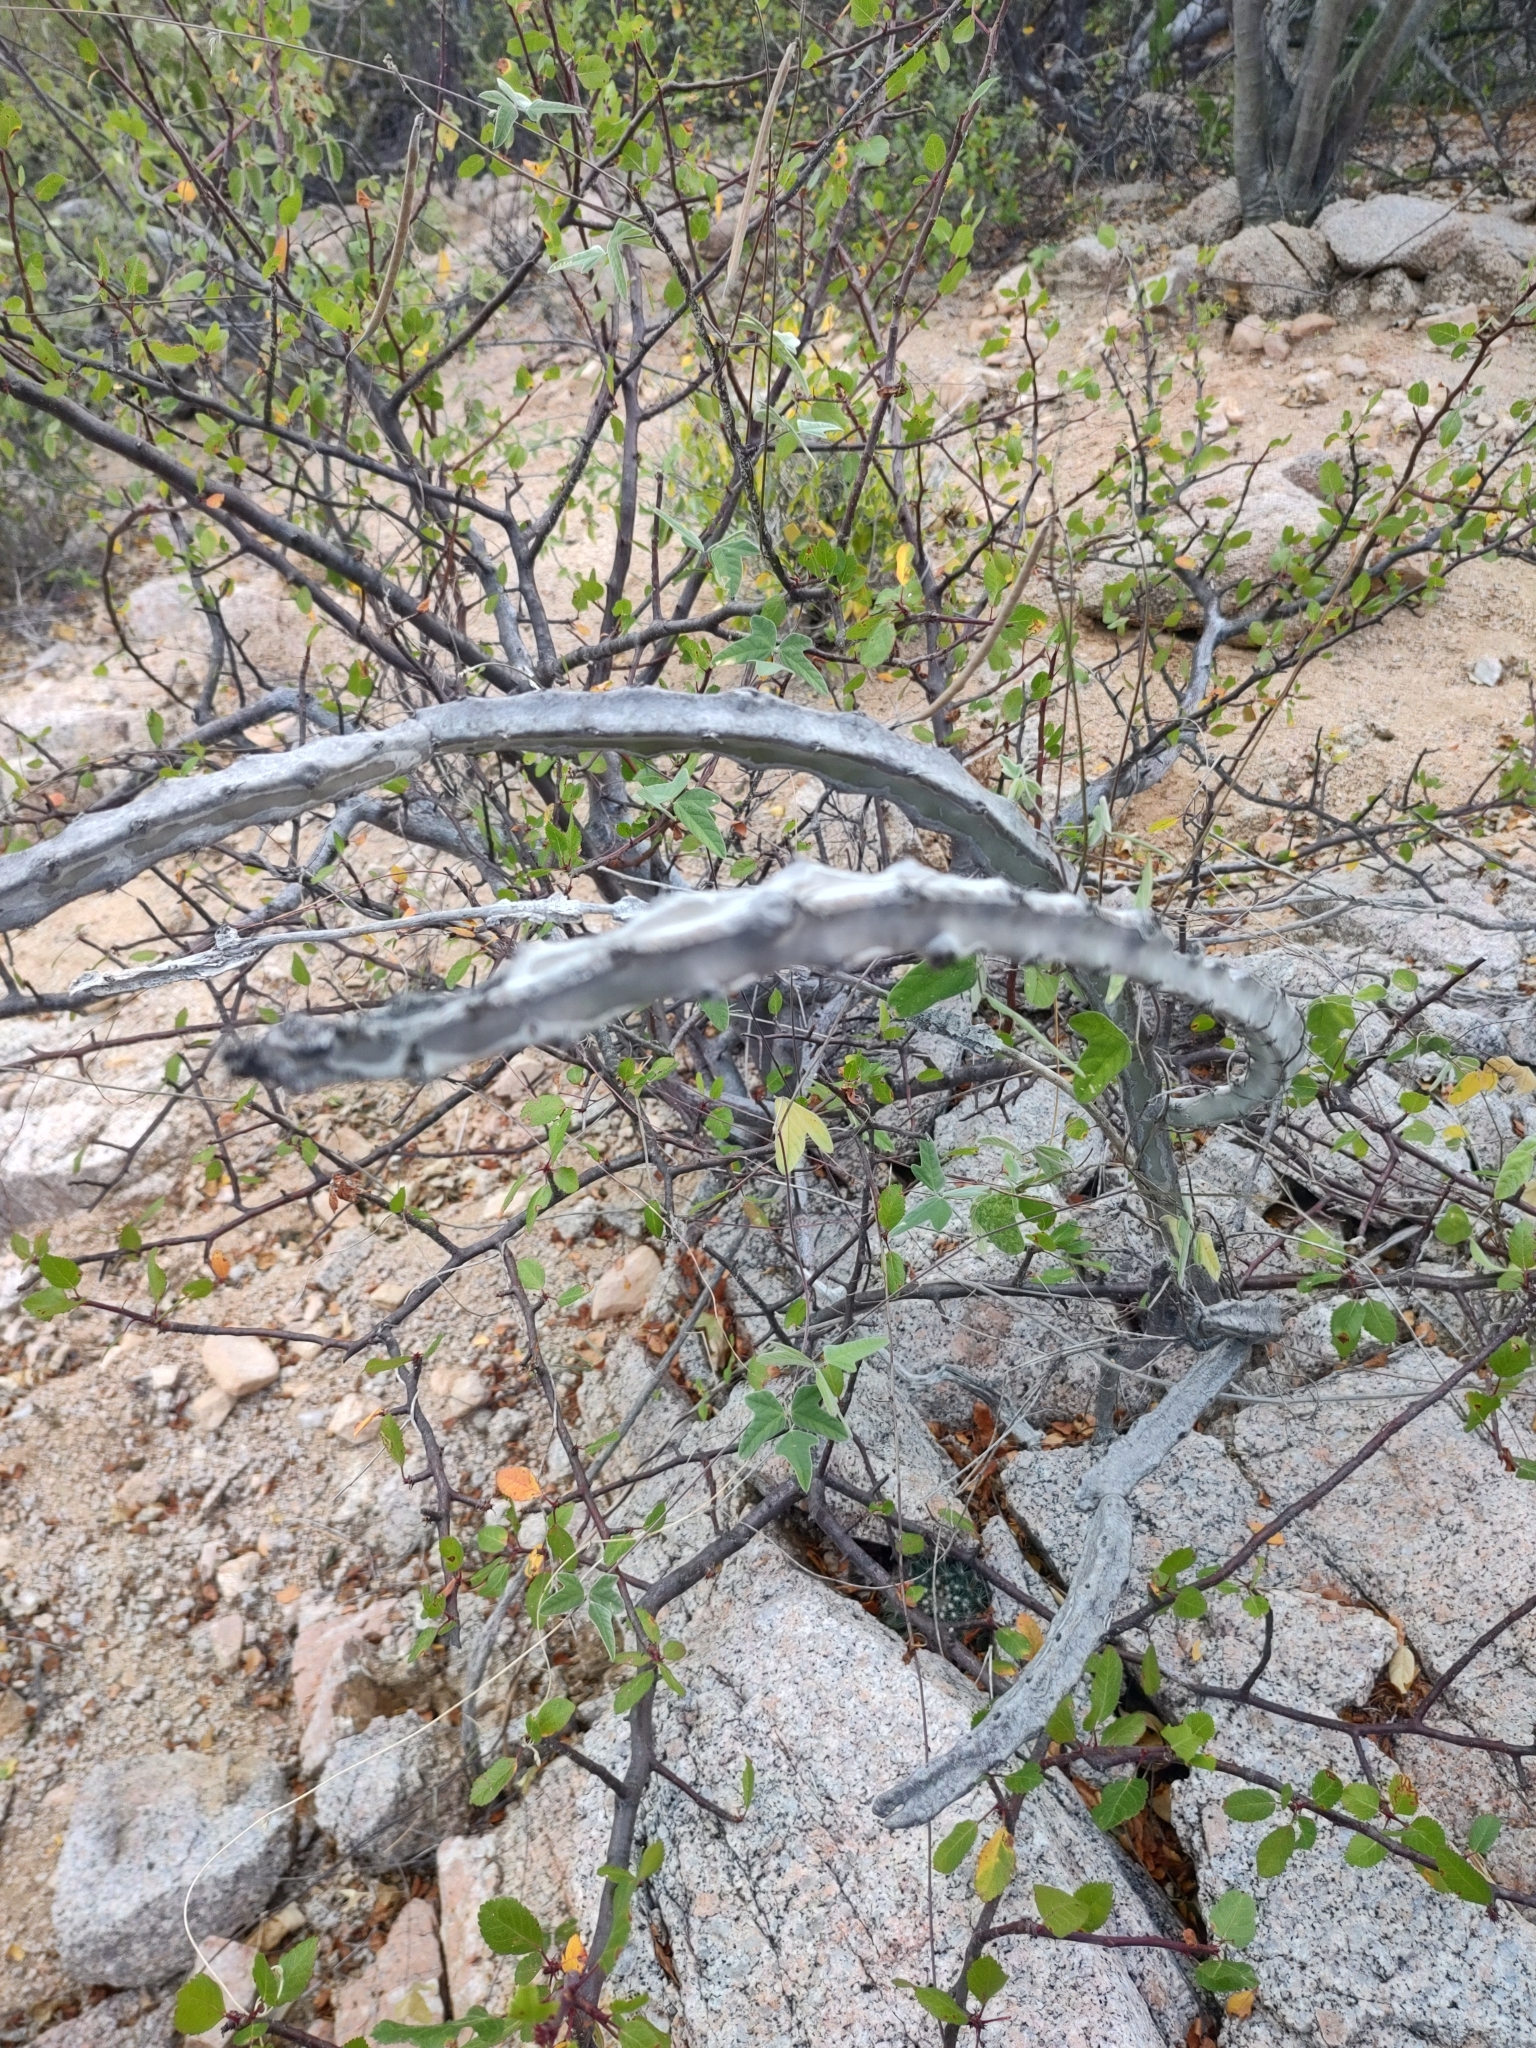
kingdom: Plantae
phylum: Tracheophyta
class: Magnoliopsida
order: Caryophyllales
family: Cactaceae
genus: Peniocereus
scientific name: Peniocereus johnstonii
